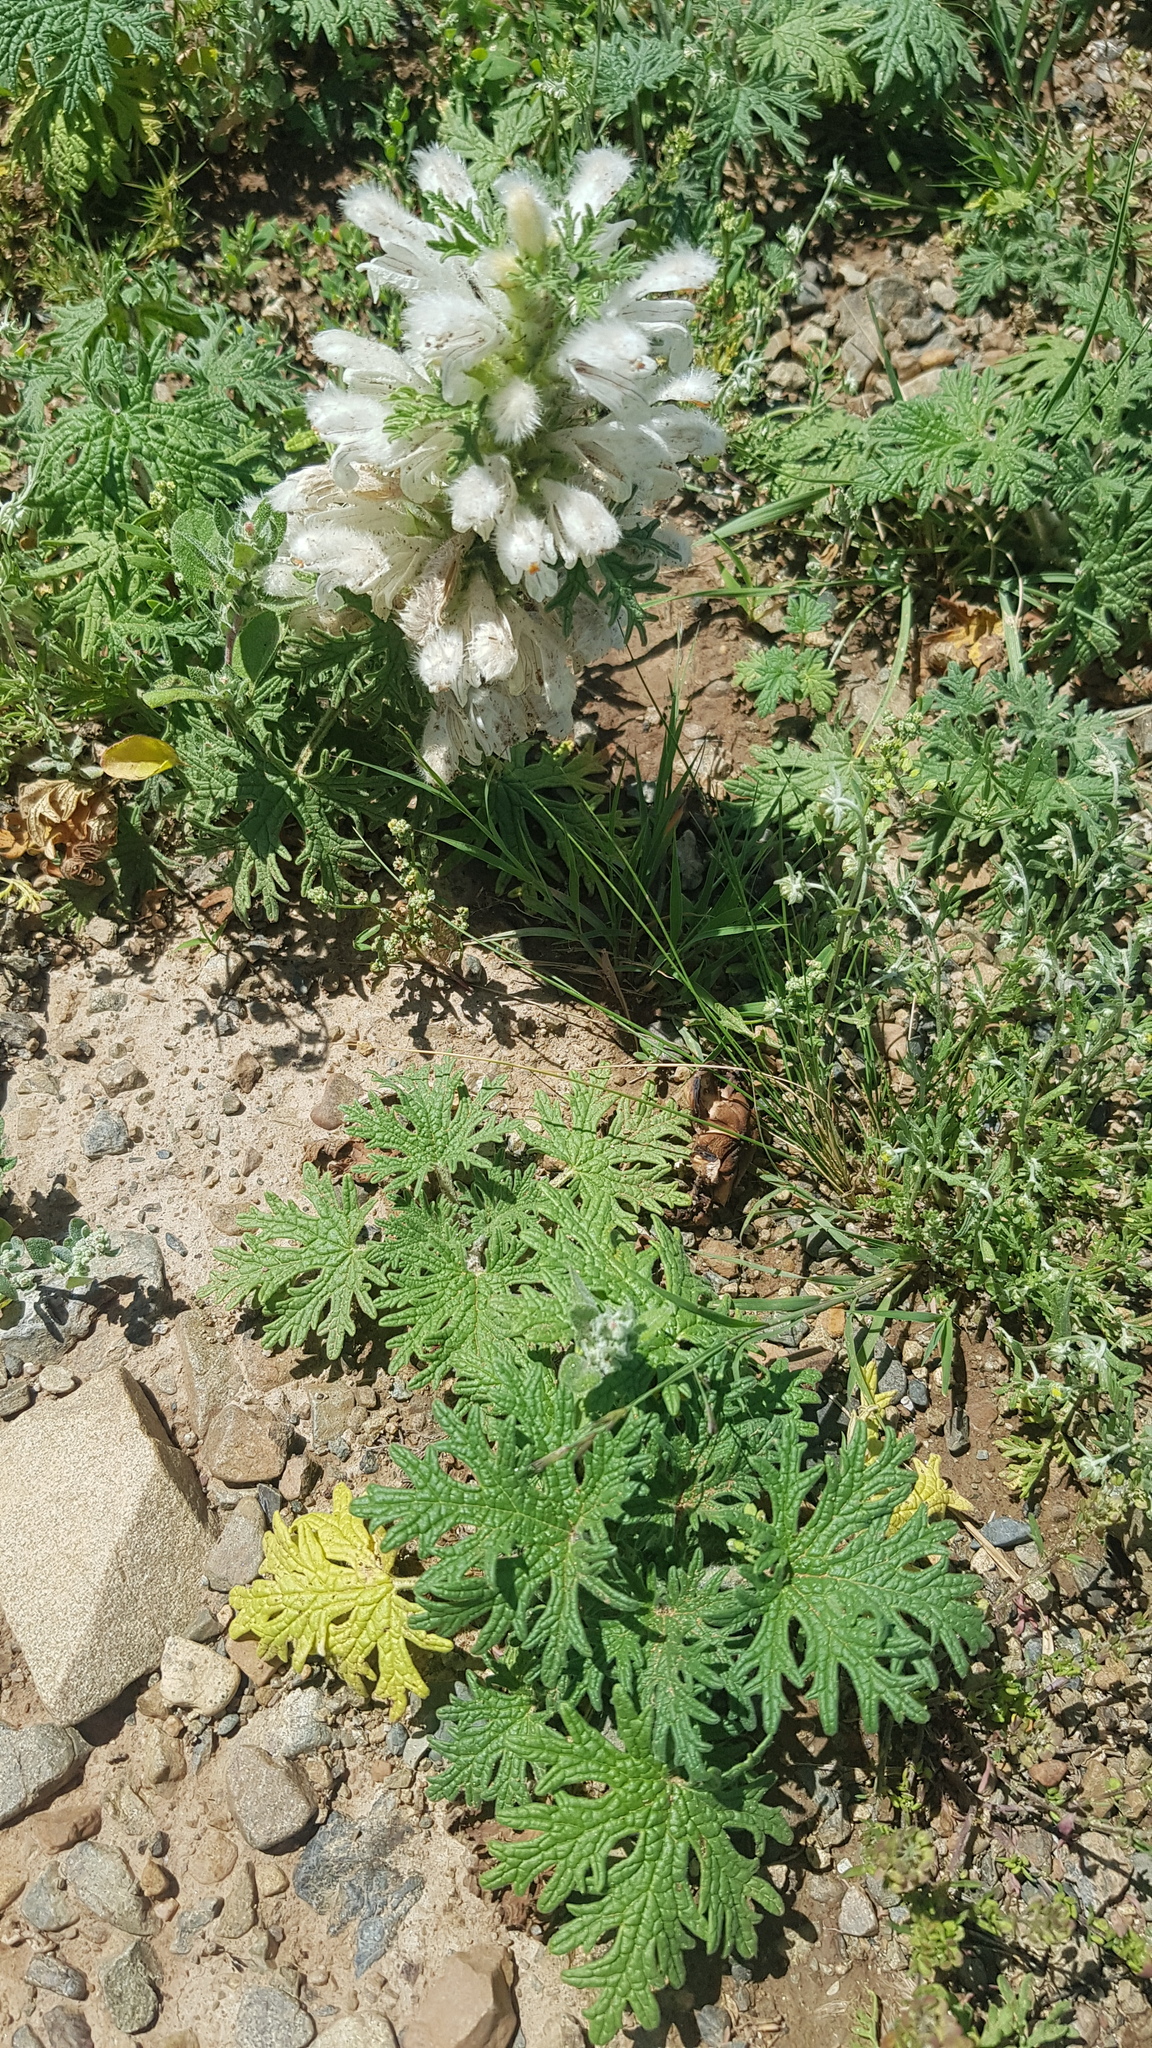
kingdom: Plantae
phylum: Tracheophyta
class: Magnoliopsida
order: Lamiales
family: Lamiaceae
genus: Panzerina
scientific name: Panzerina lanata
